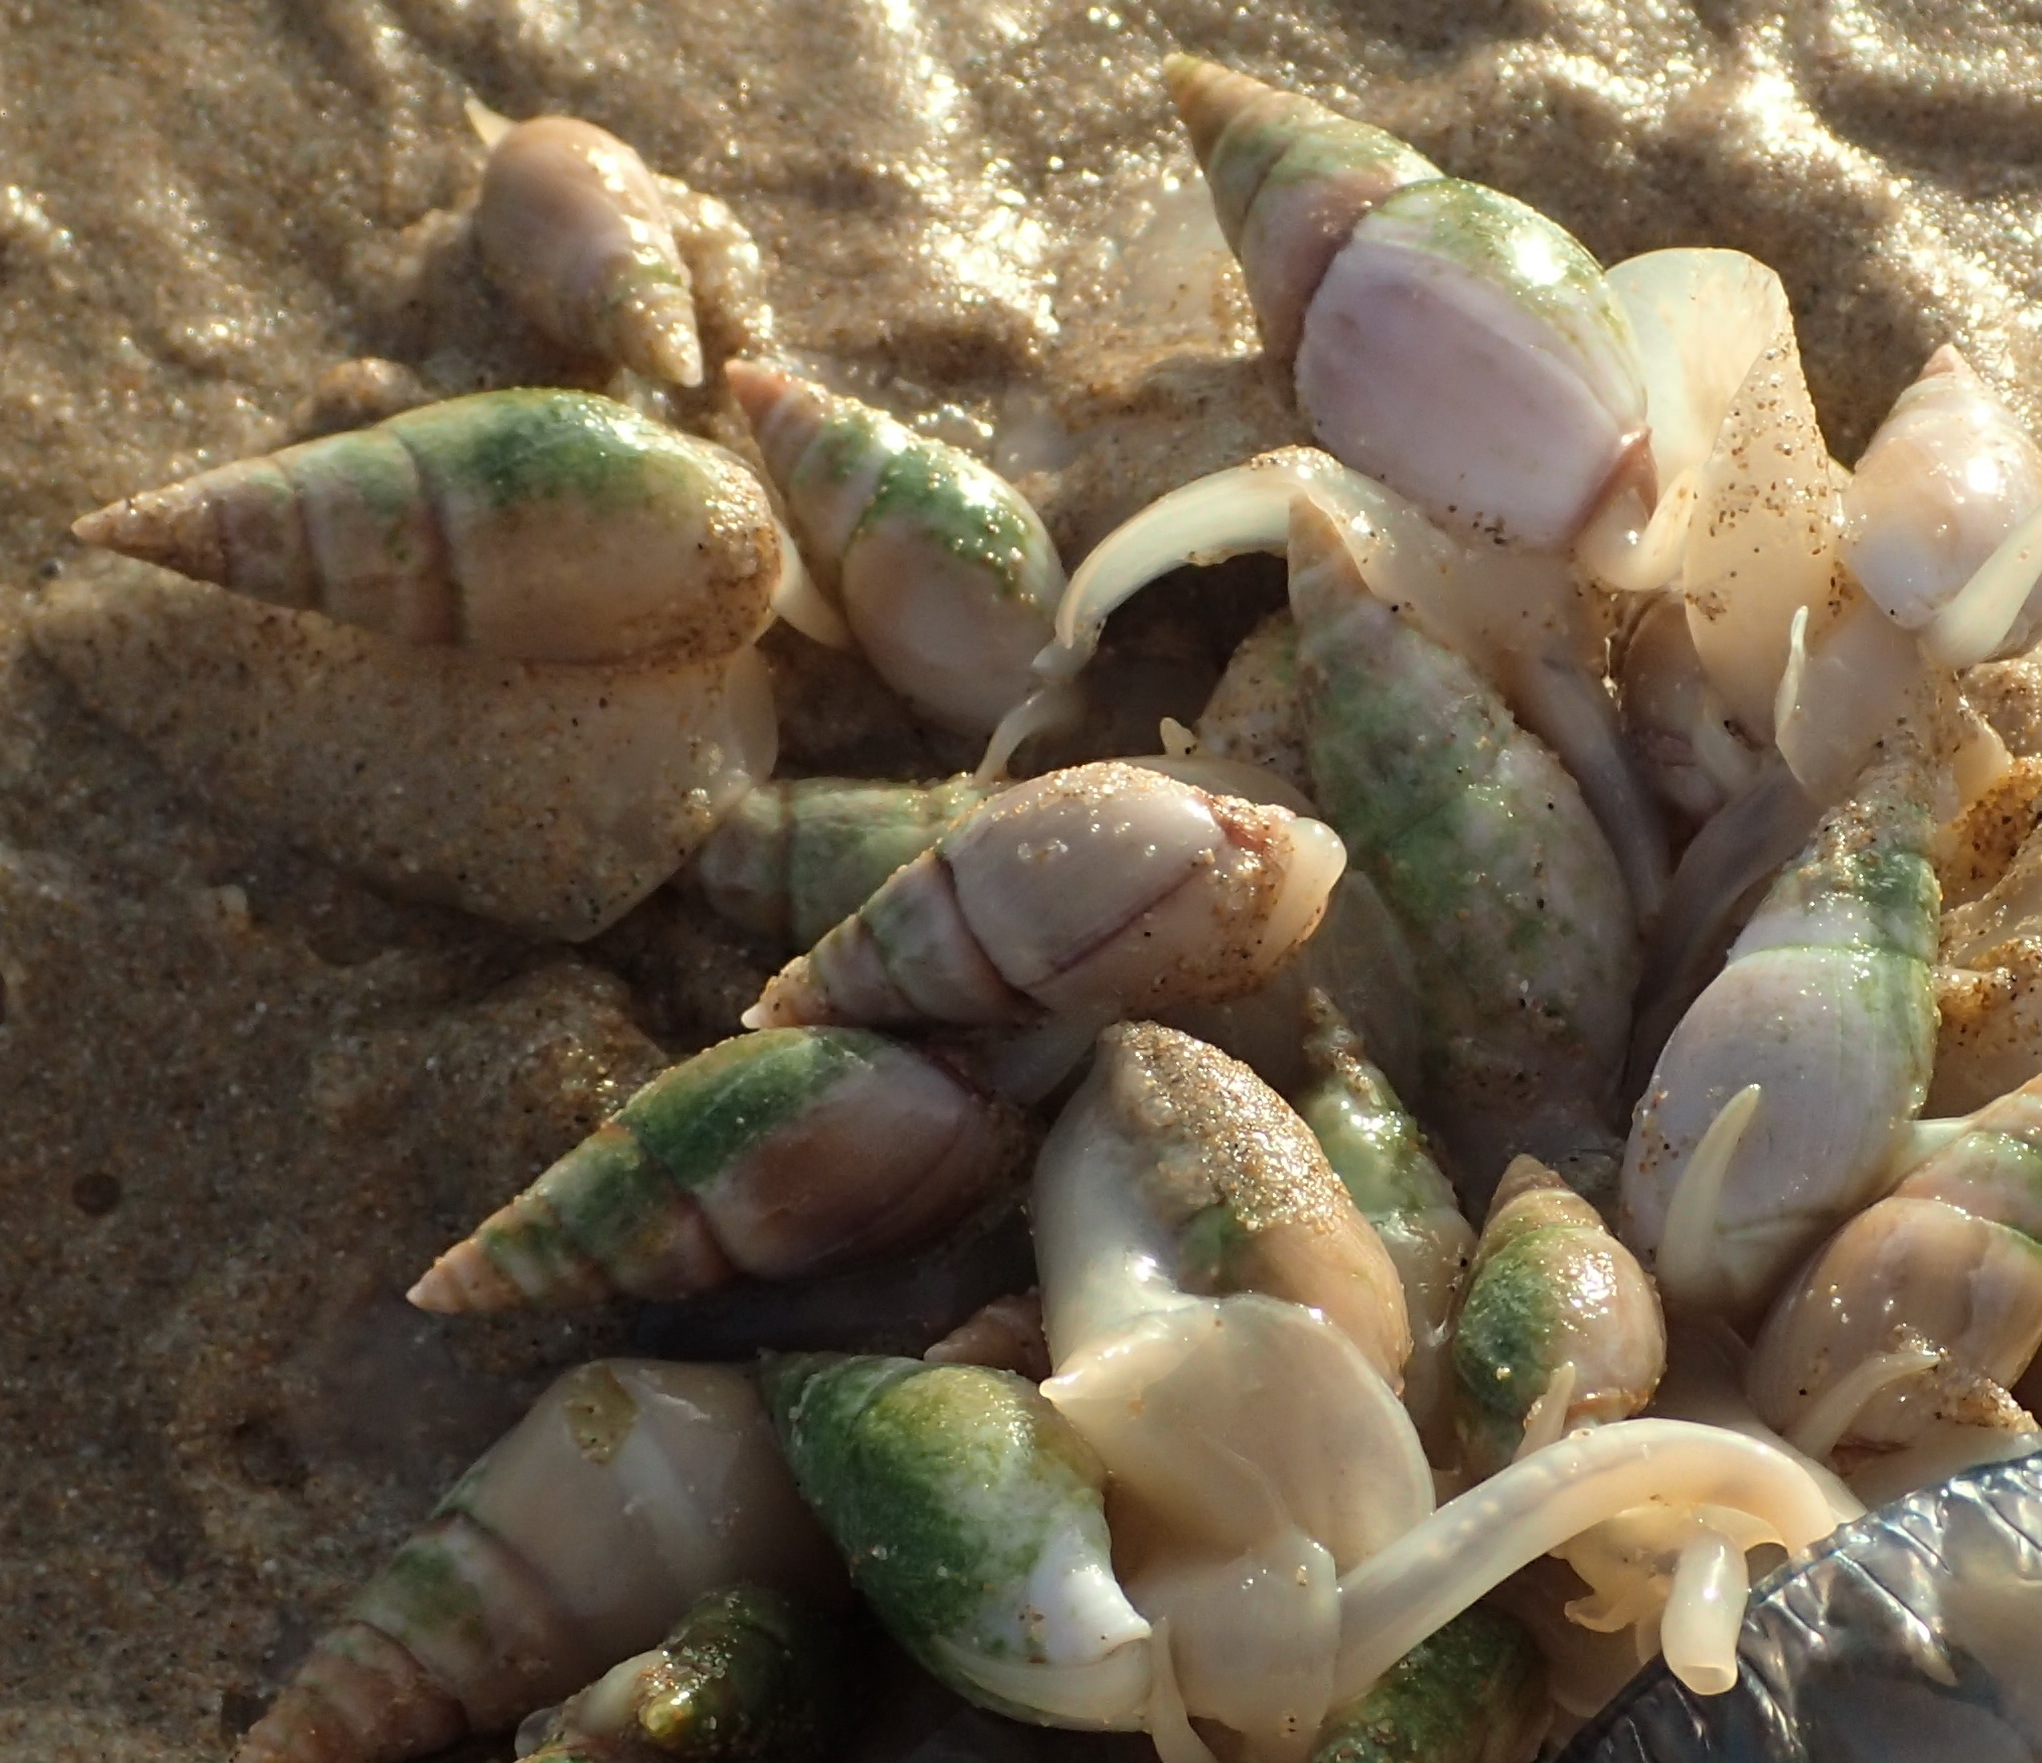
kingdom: Animalia
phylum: Mollusca
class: Gastropoda
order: Neogastropoda
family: Nassariidae
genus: Bullia
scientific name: Bullia rhodostoma
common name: Smooth plough shell
